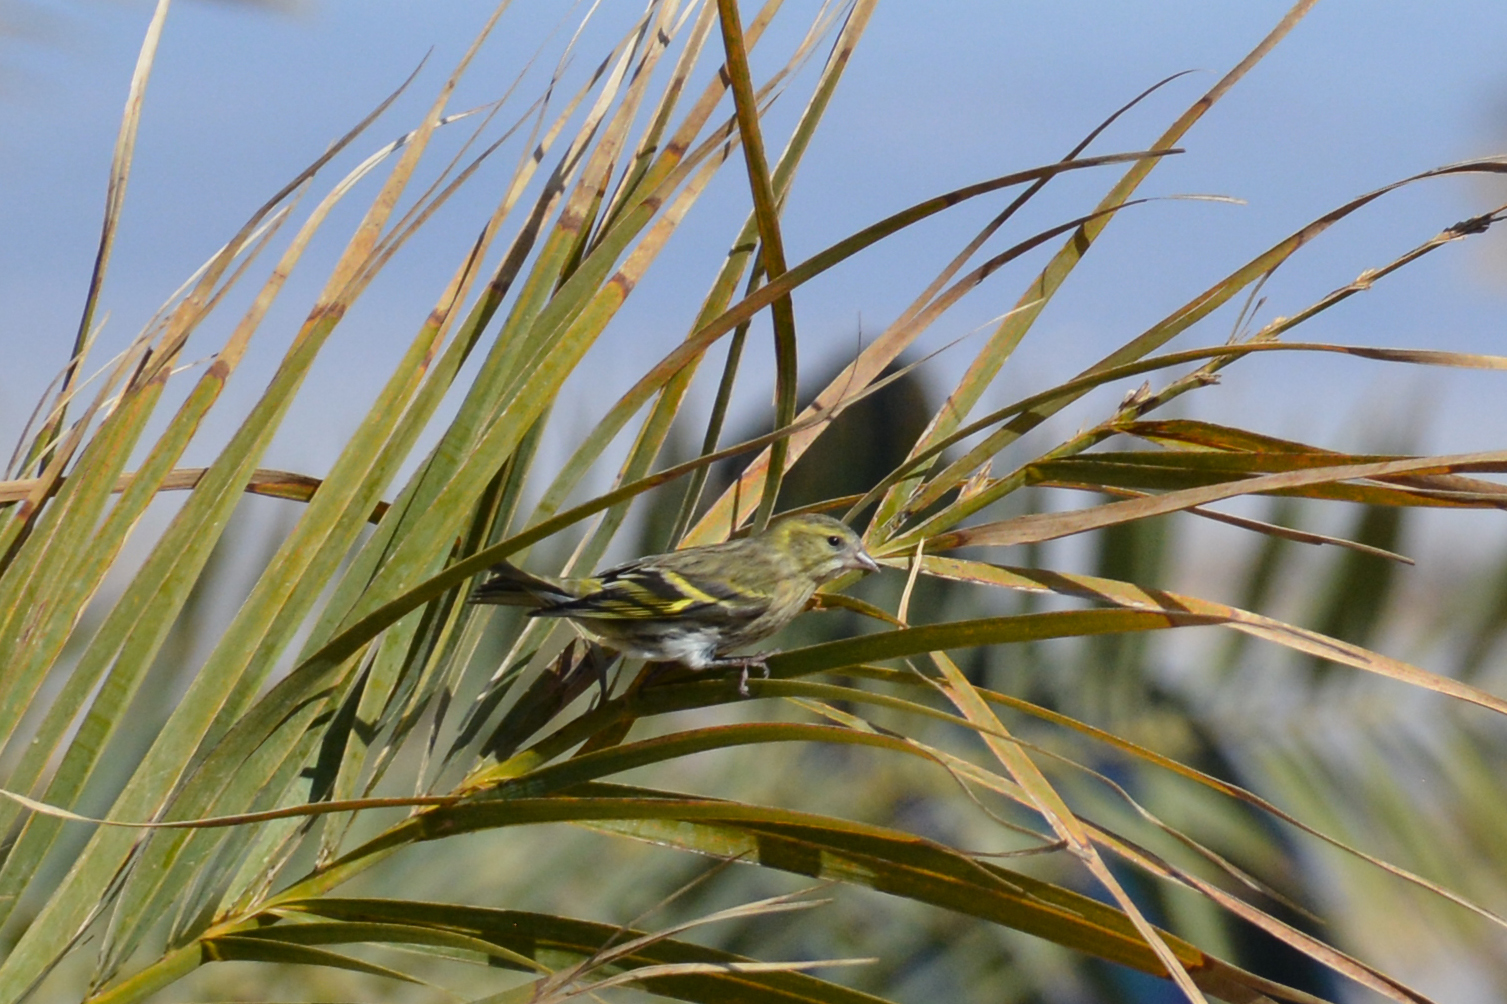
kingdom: Animalia
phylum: Chordata
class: Aves
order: Passeriformes
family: Fringillidae
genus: Spinus
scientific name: Spinus spinus
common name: Eurasian siskin
